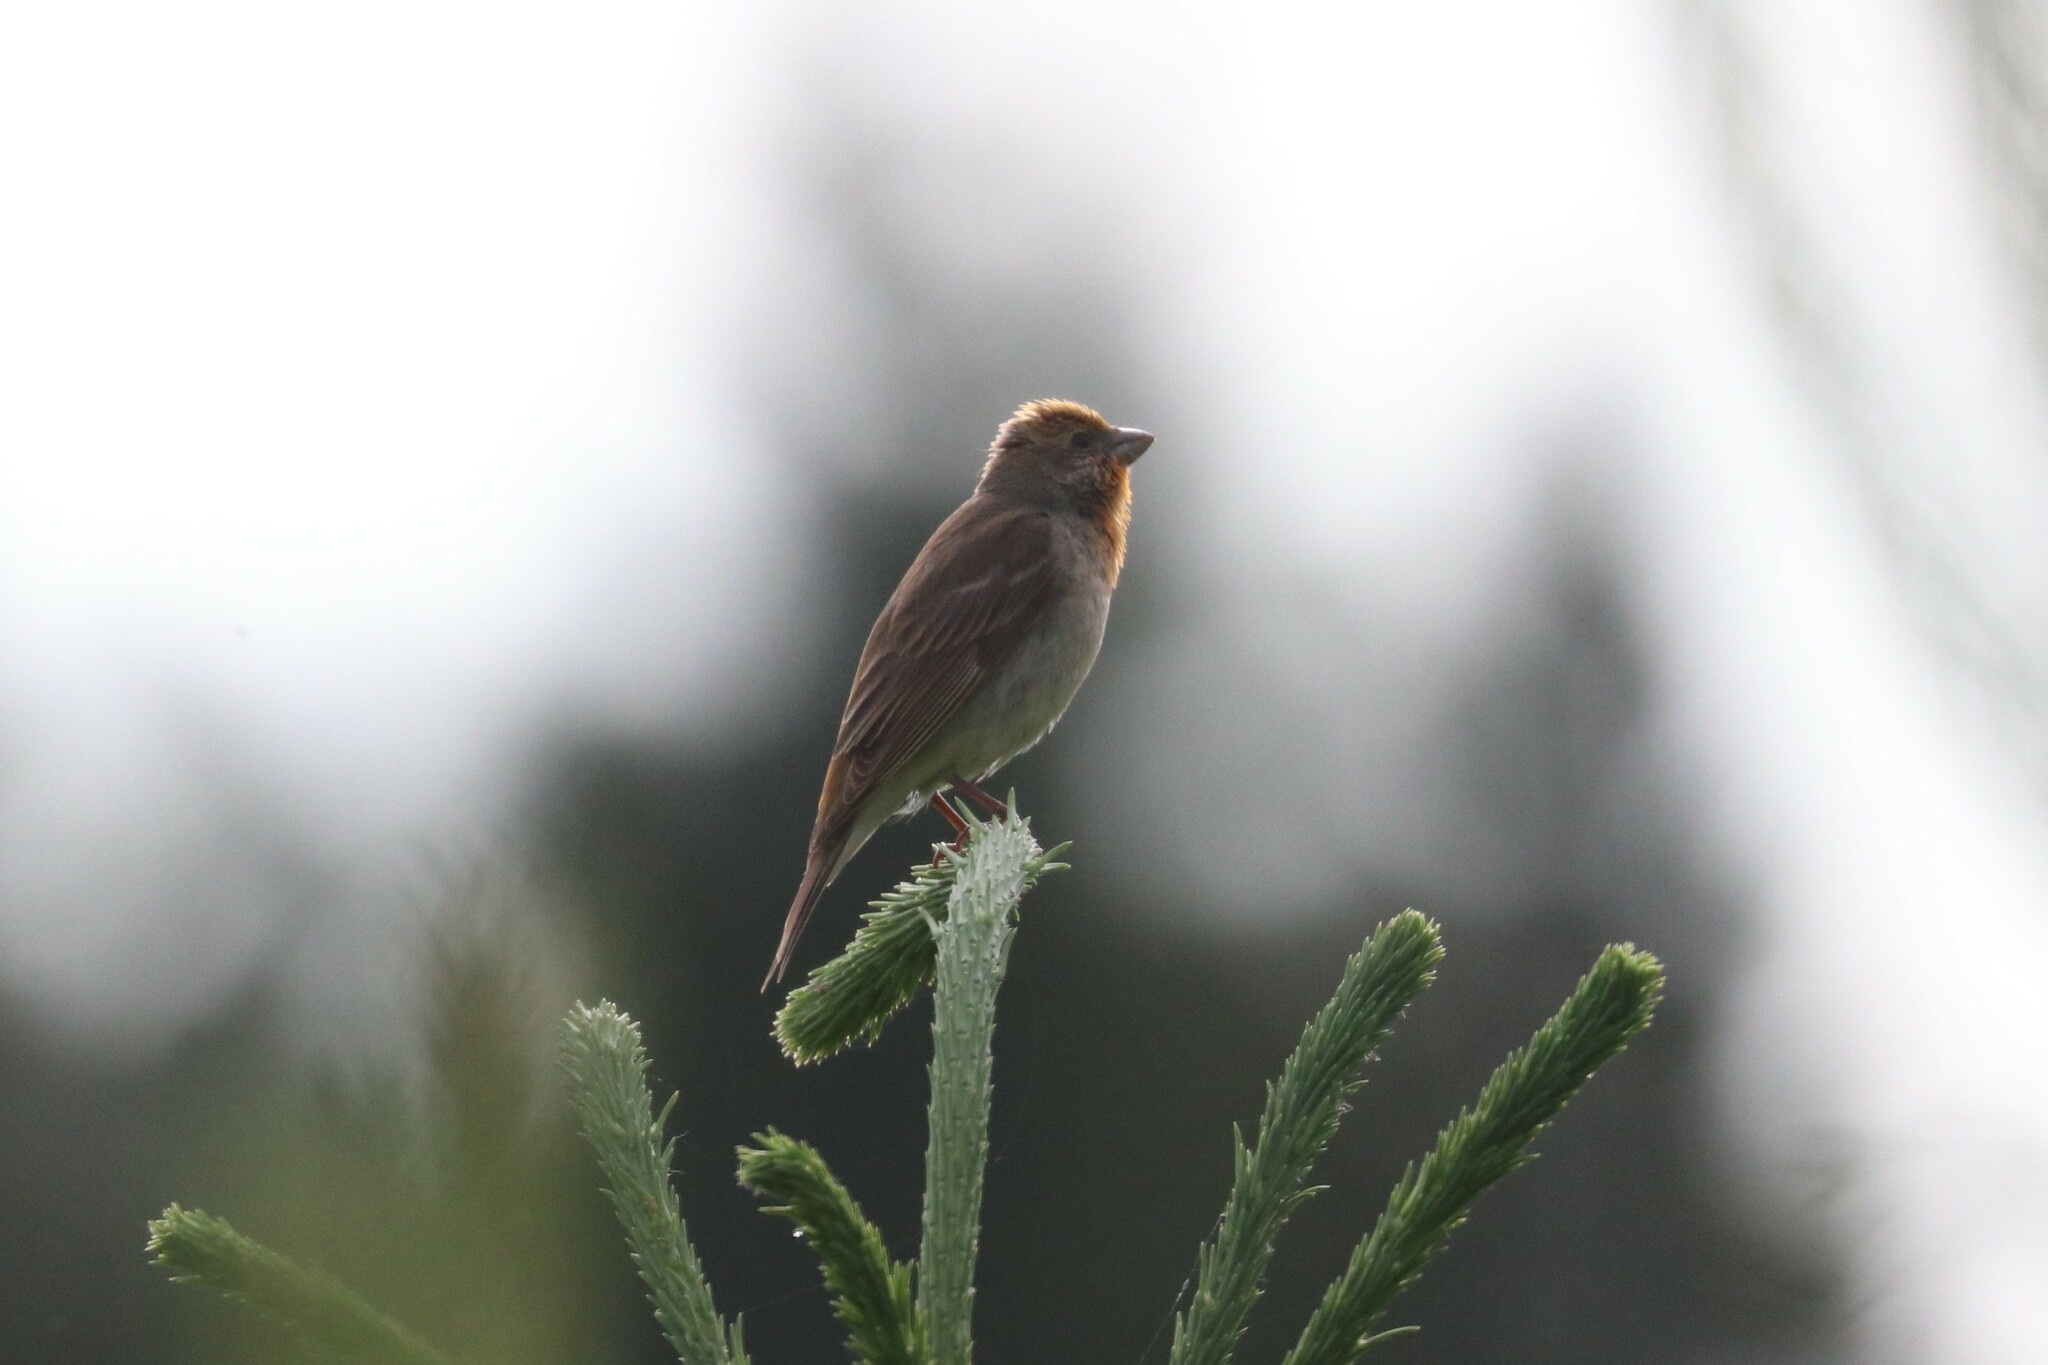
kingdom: Animalia
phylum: Chordata
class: Aves
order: Passeriformes
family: Fringillidae
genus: Carpodacus
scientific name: Carpodacus erythrinus
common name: Common rosefinch
